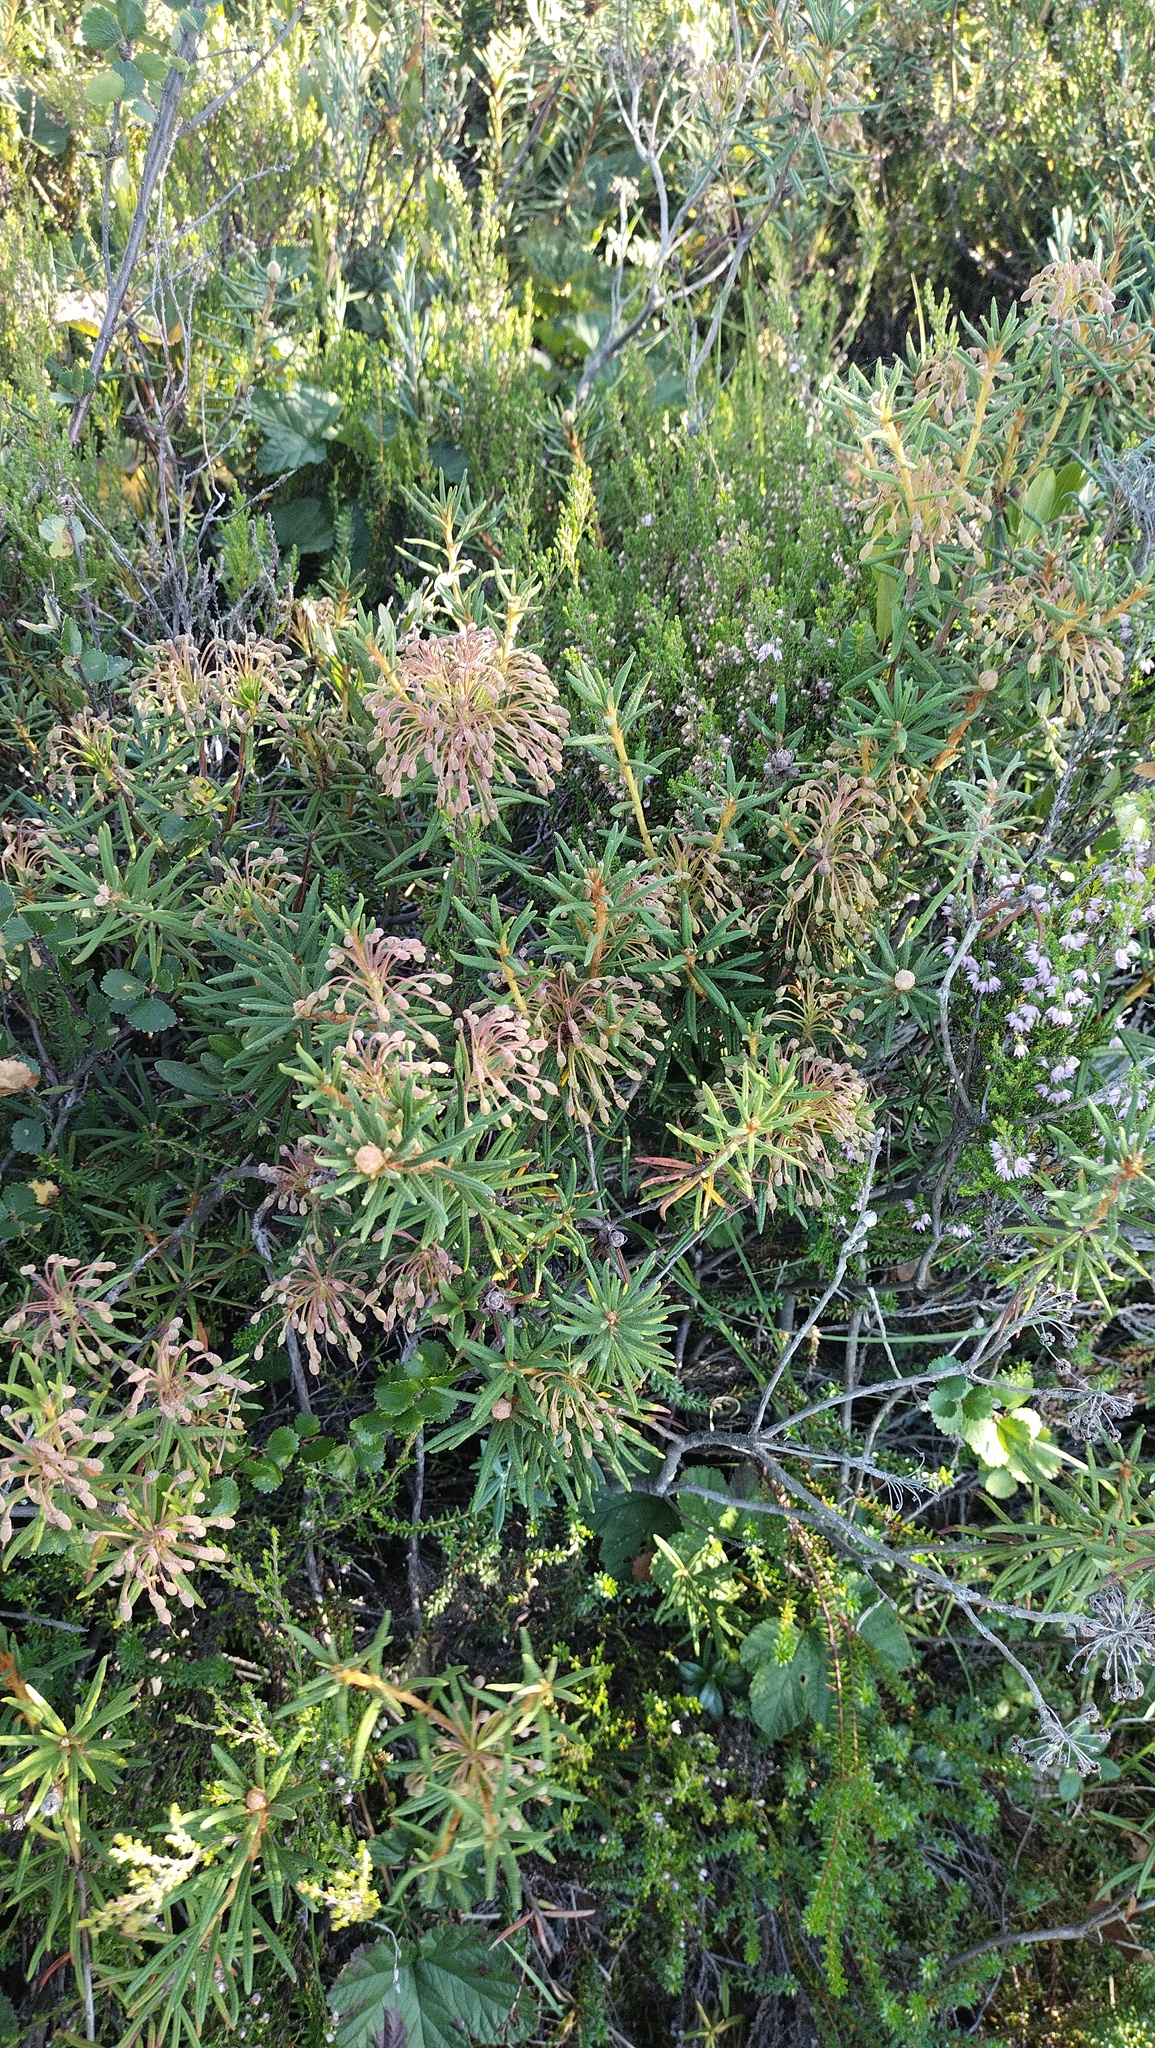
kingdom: Plantae
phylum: Tracheophyta
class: Magnoliopsida
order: Ericales
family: Ericaceae
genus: Rhododendron
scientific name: Rhododendron tomentosum
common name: Marsh labrador tea
